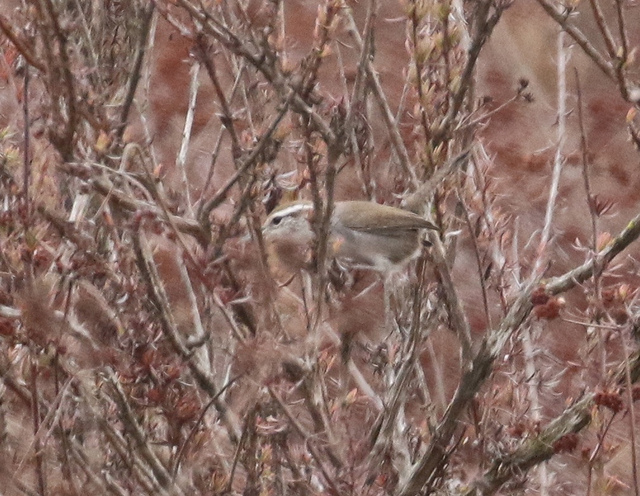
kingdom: Animalia
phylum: Chordata
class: Aves
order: Passeriformes
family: Troglodytidae
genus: Thryomanes
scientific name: Thryomanes bewickii
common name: Bewick's wren
